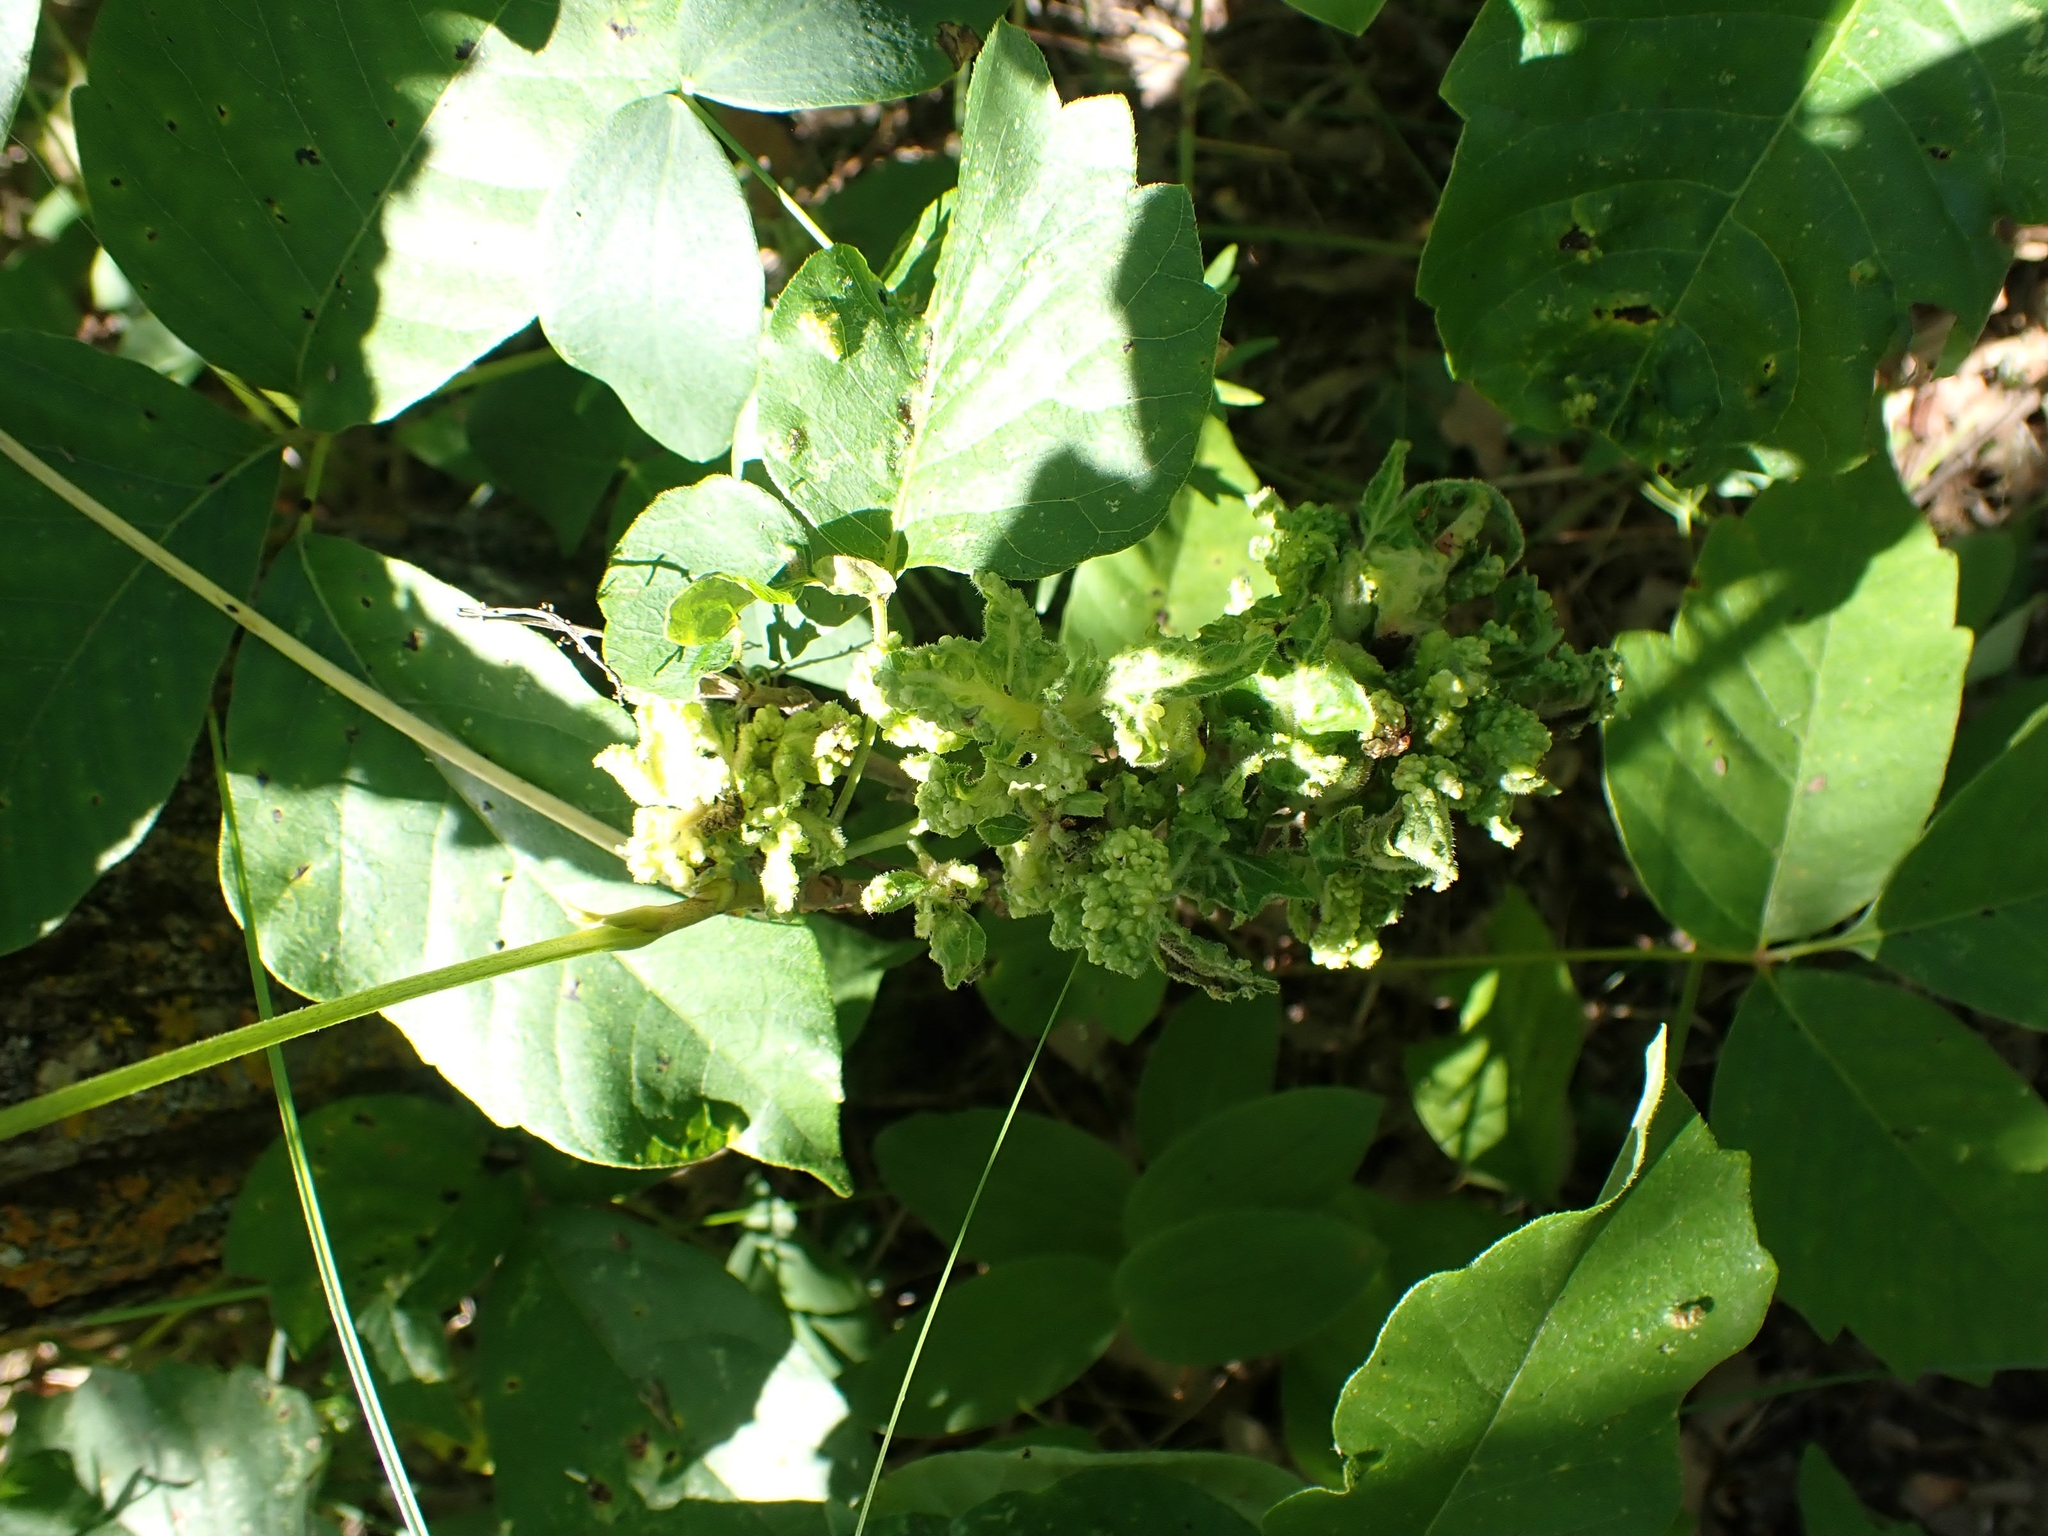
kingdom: Animalia
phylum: Arthropoda
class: Arachnida
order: Trombidiformes
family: Eriophyidae
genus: Aculops
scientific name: Aculops
